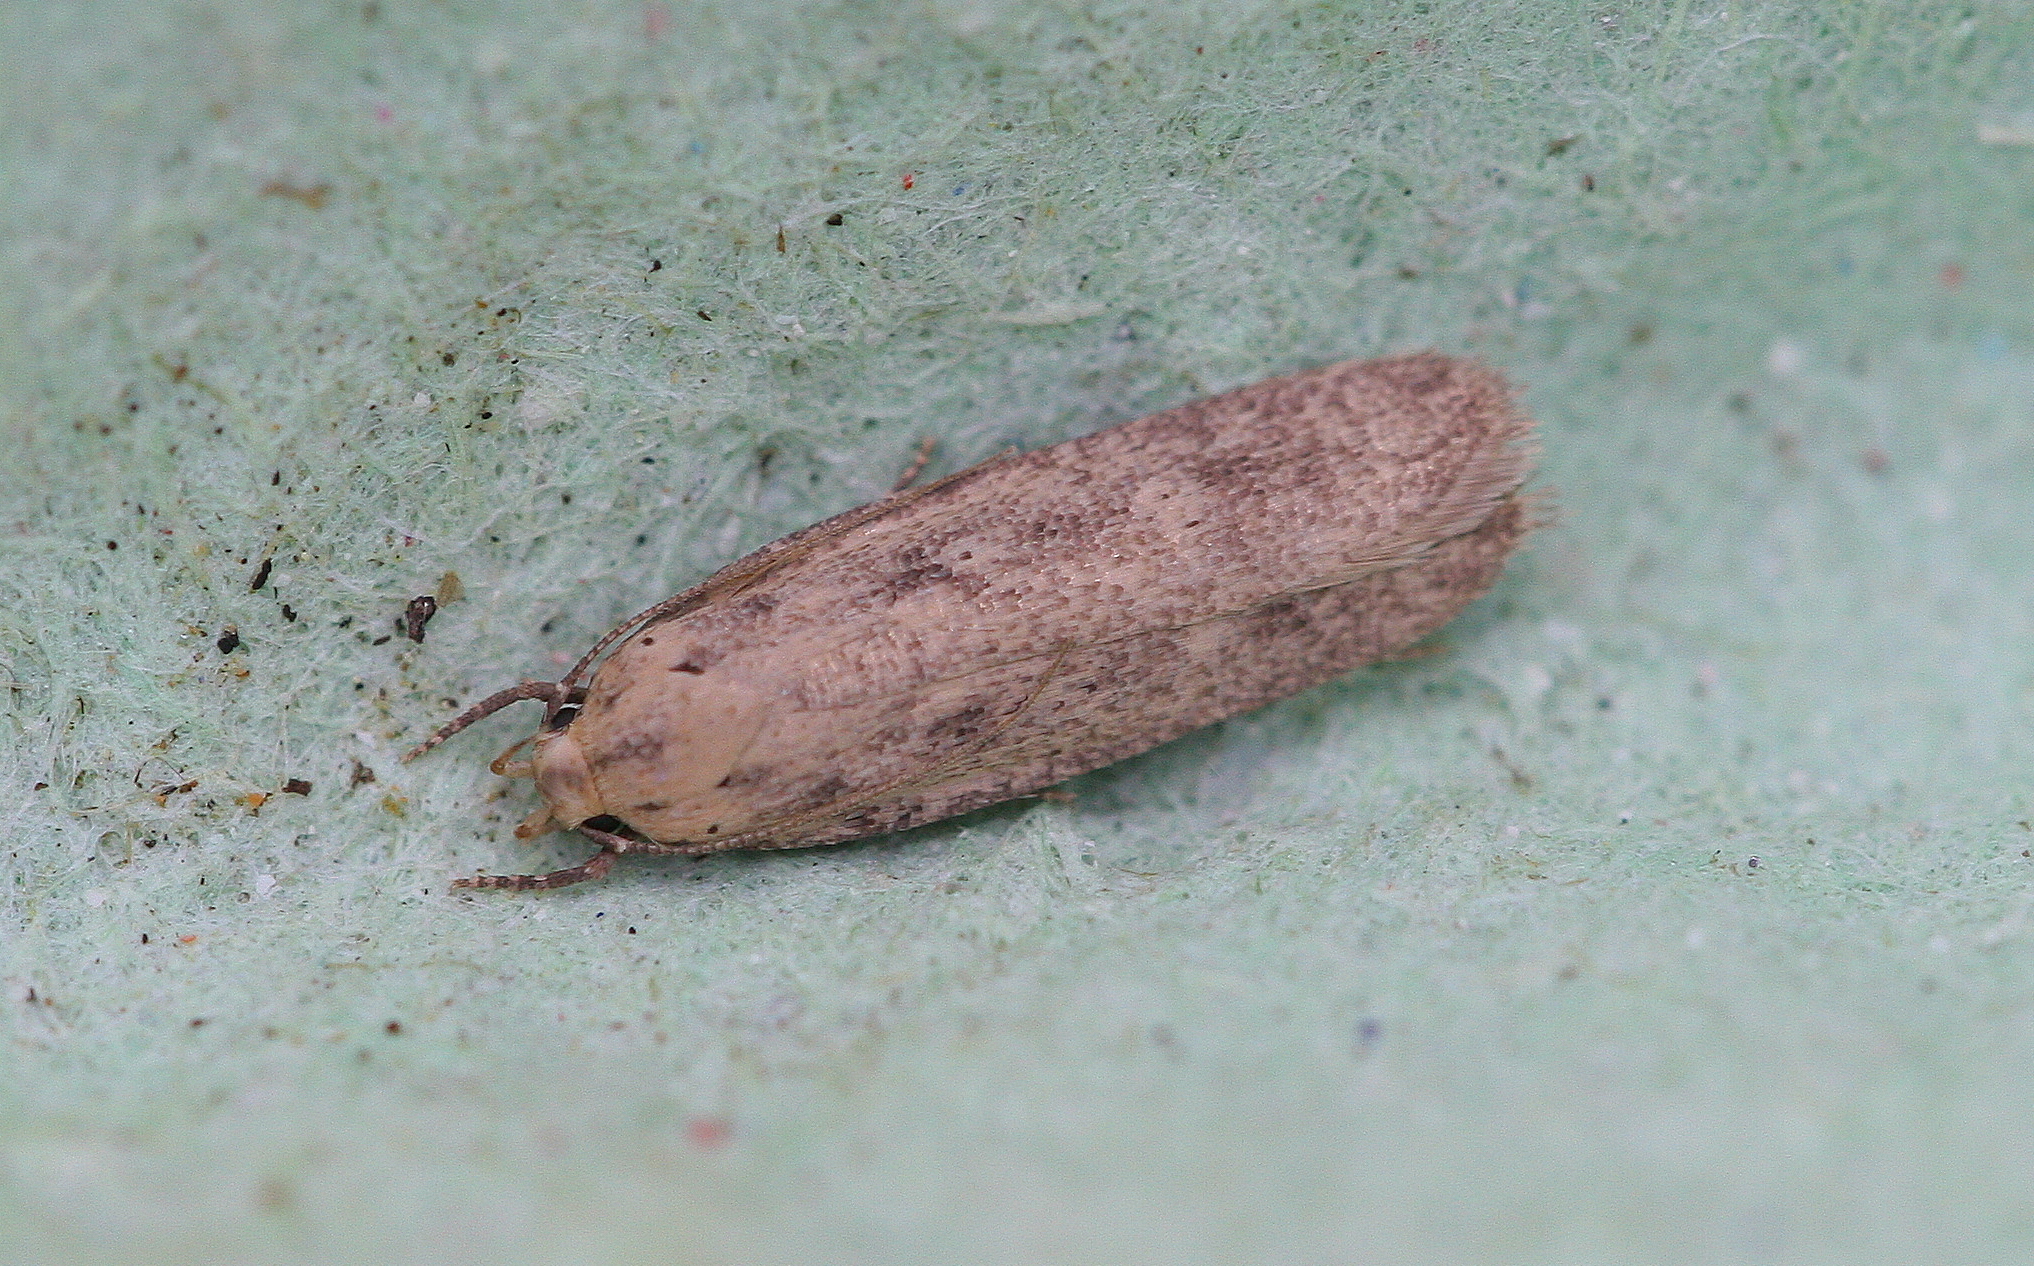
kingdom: Animalia
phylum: Arthropoda
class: Insecta
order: Lepidoptera
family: Gelechiidae
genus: Platyedra
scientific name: Platyedra subcinerea
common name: Moth
